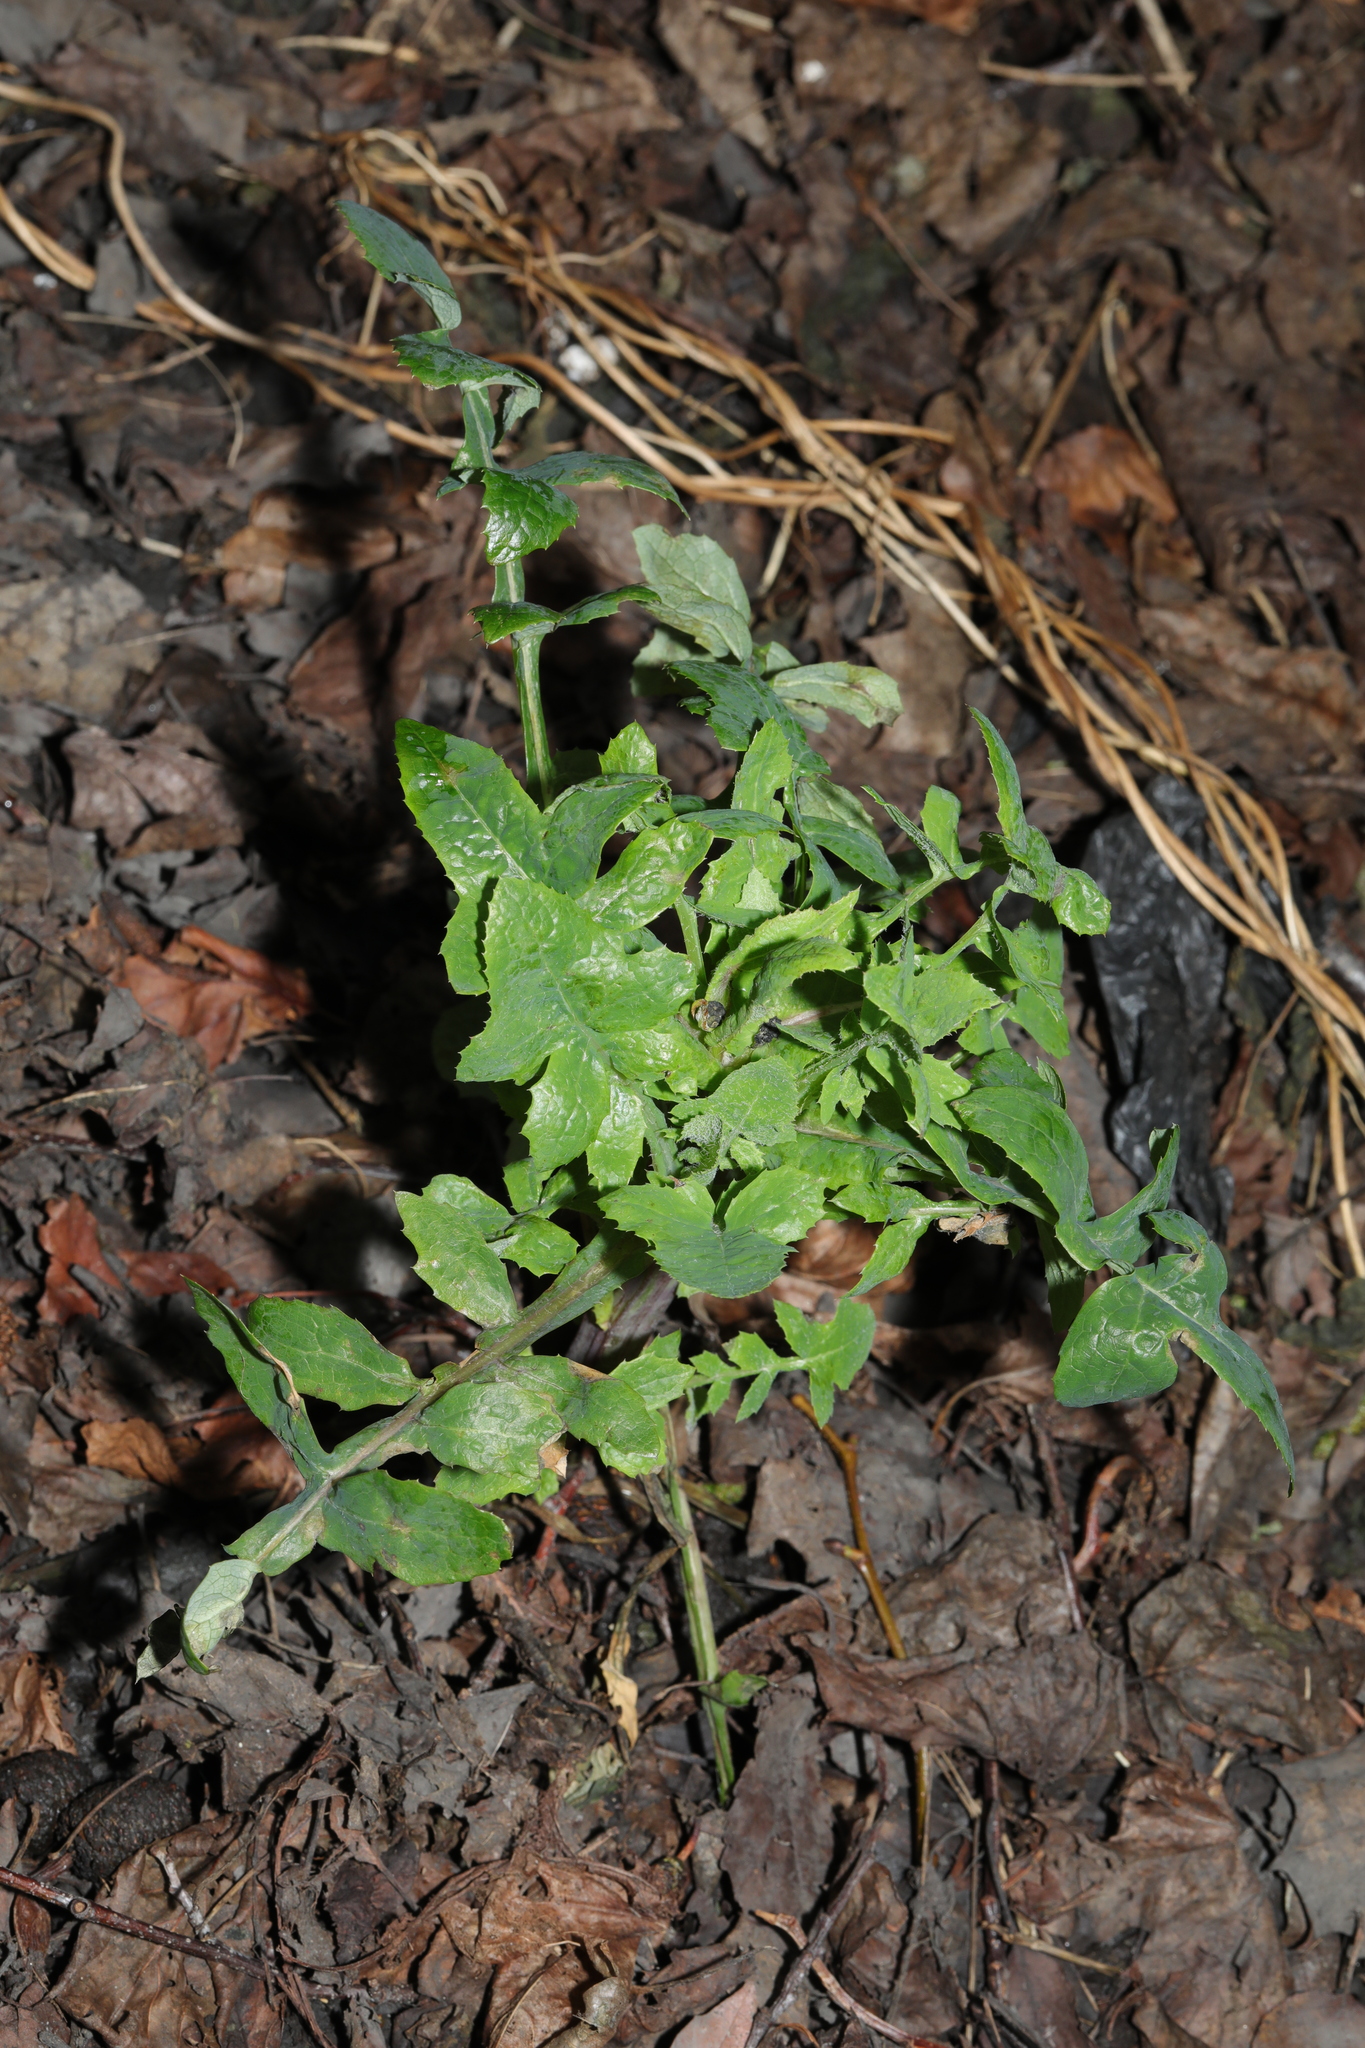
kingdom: Plantae
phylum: Tracheophyta
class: Magnoliopsida
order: Asterales
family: Asteraceae
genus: Sonchus
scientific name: Sonchus oleraceus
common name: Common sowthistle
